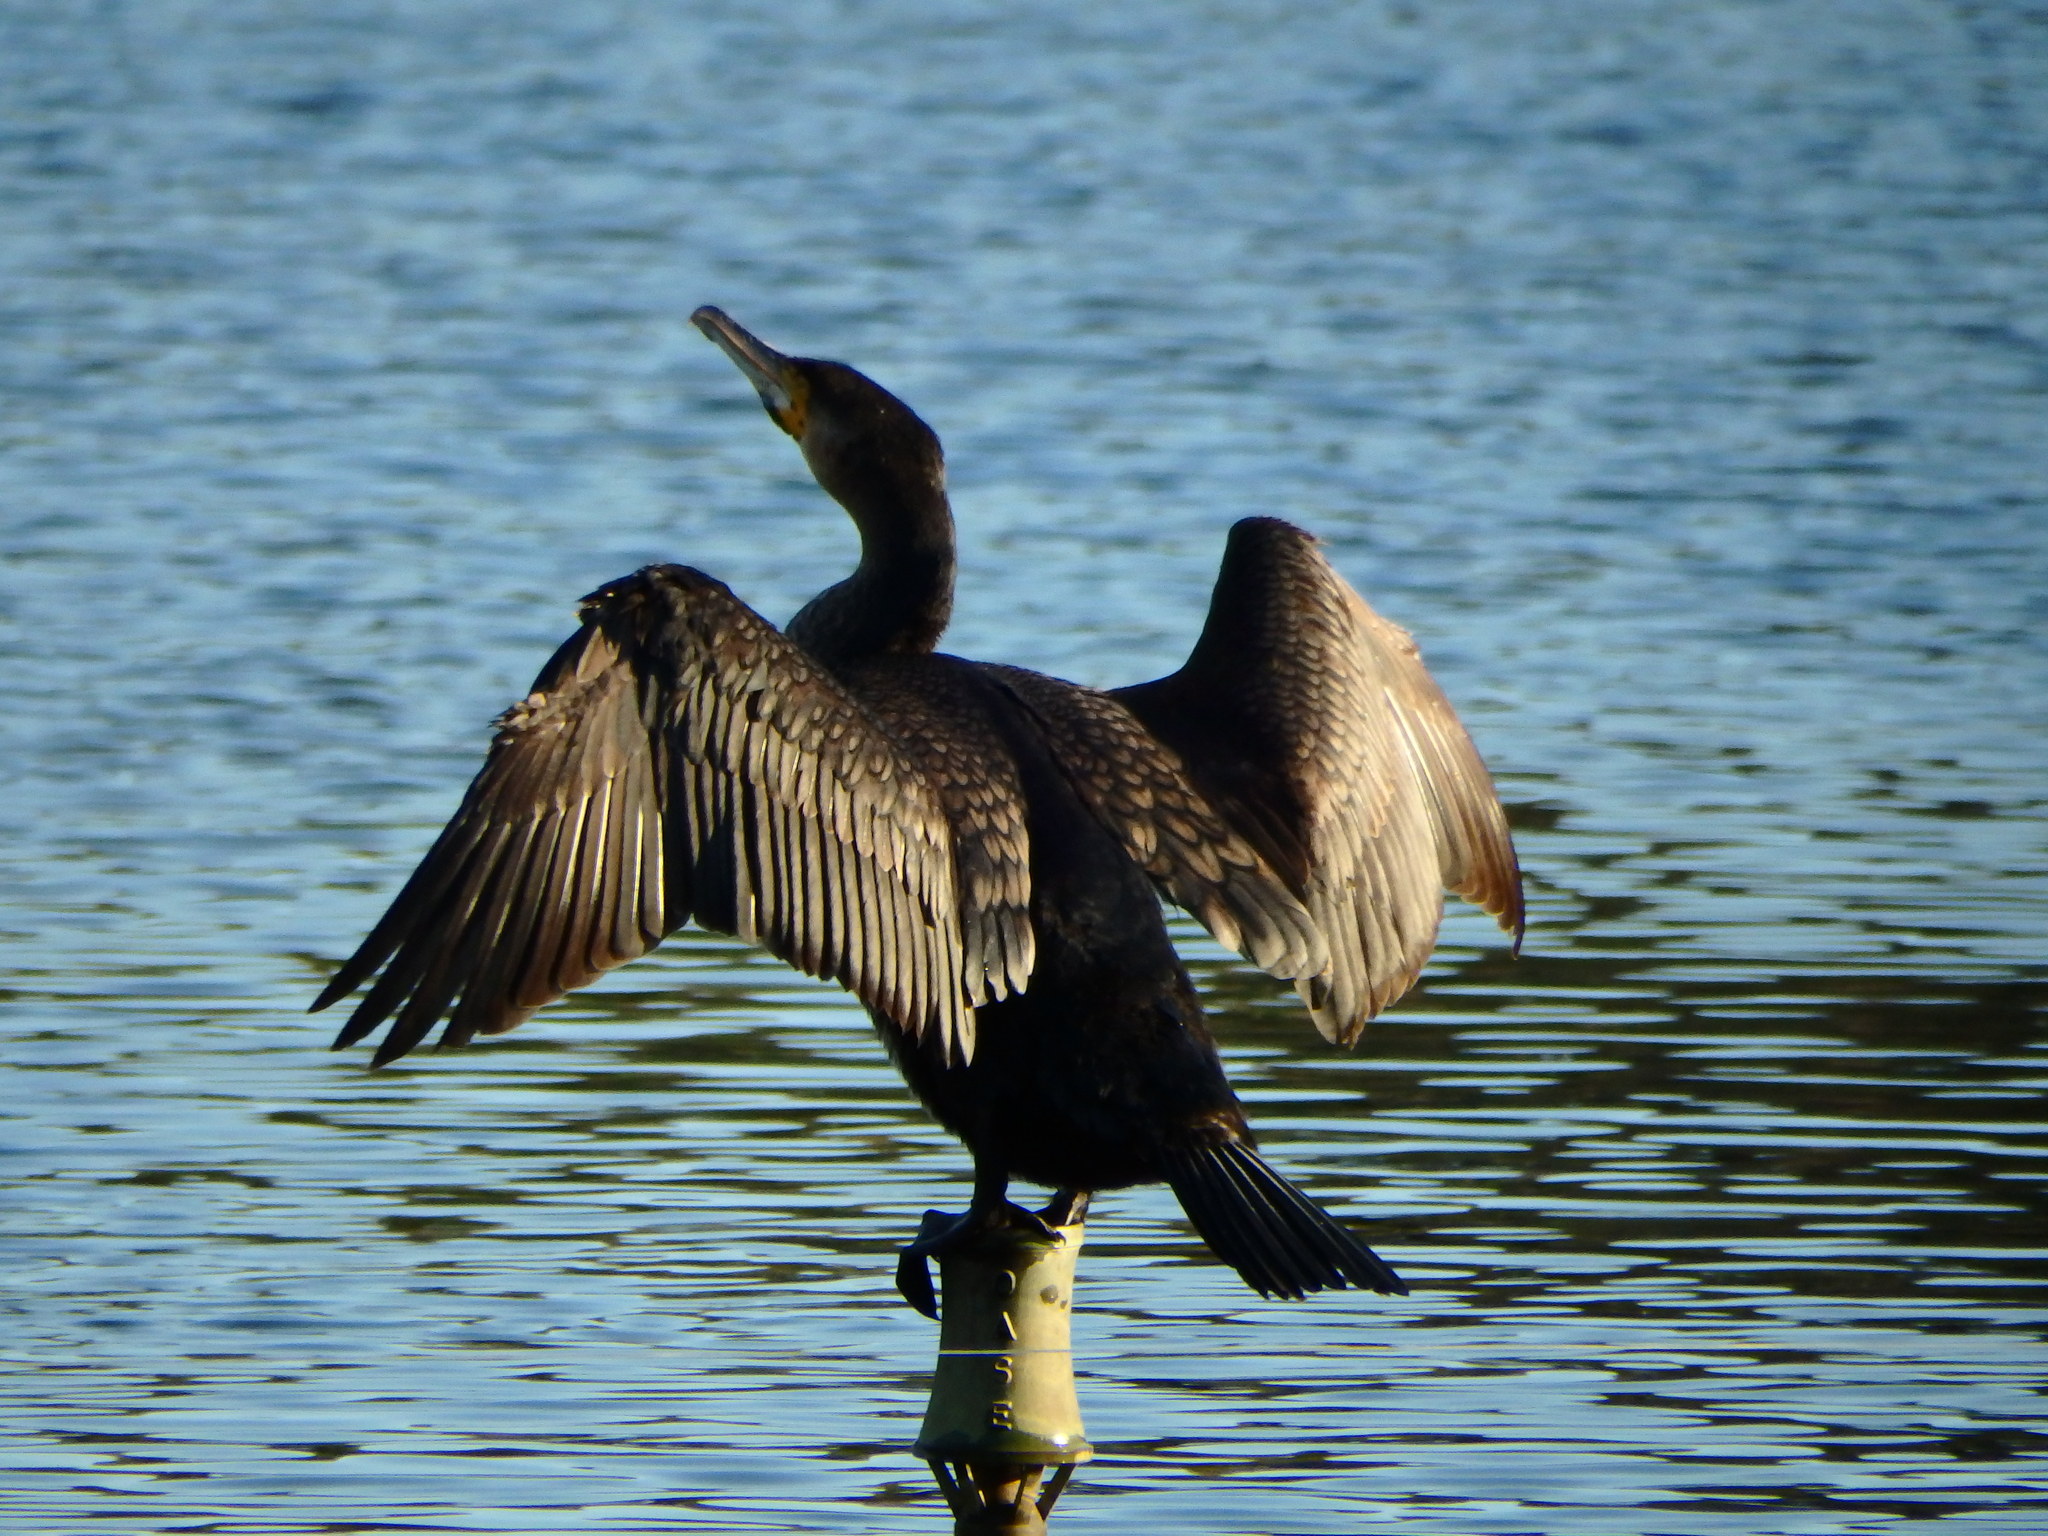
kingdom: Animalia
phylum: Chordata
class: Aves
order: Suliformes
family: Phalacrocoracidae
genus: Phalacrocorax
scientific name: Phalacrocorax carbo
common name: Great cormorant
